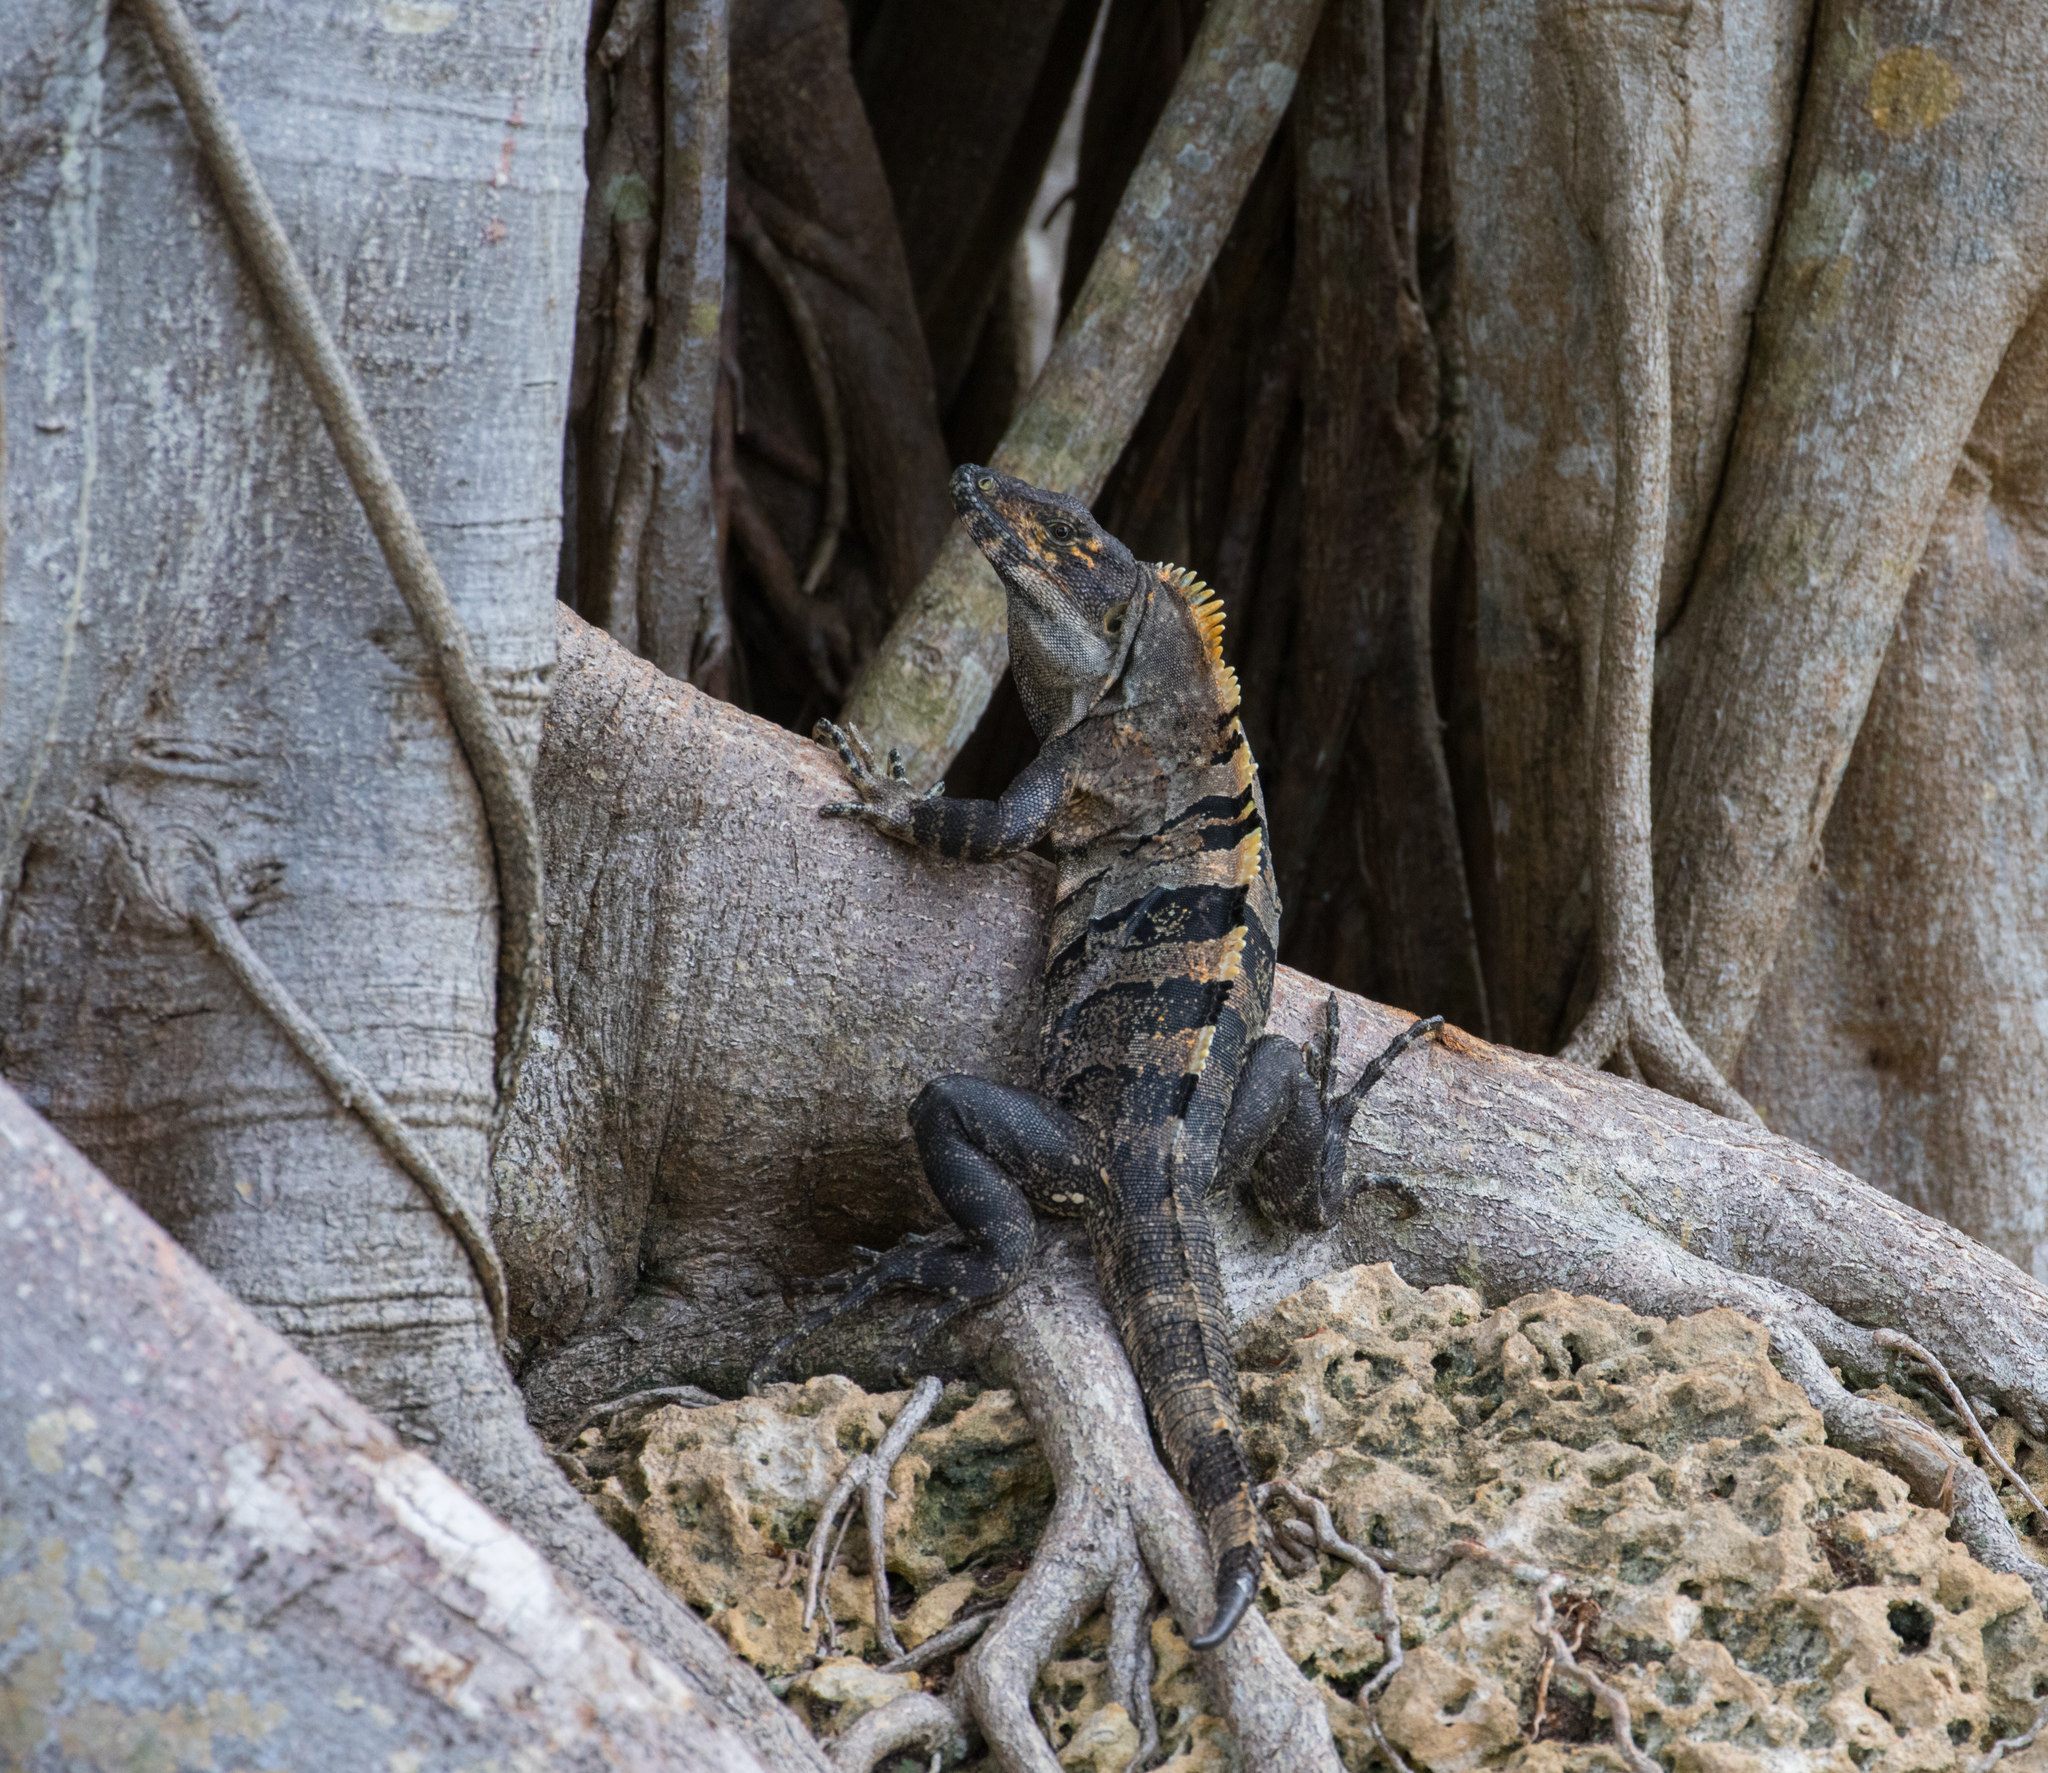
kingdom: Animalia
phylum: Chordata
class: Squamata
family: Iguanidae
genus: Ctenosaura
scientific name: Ctenosaura similis
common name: Black spiny-tailed iguana
